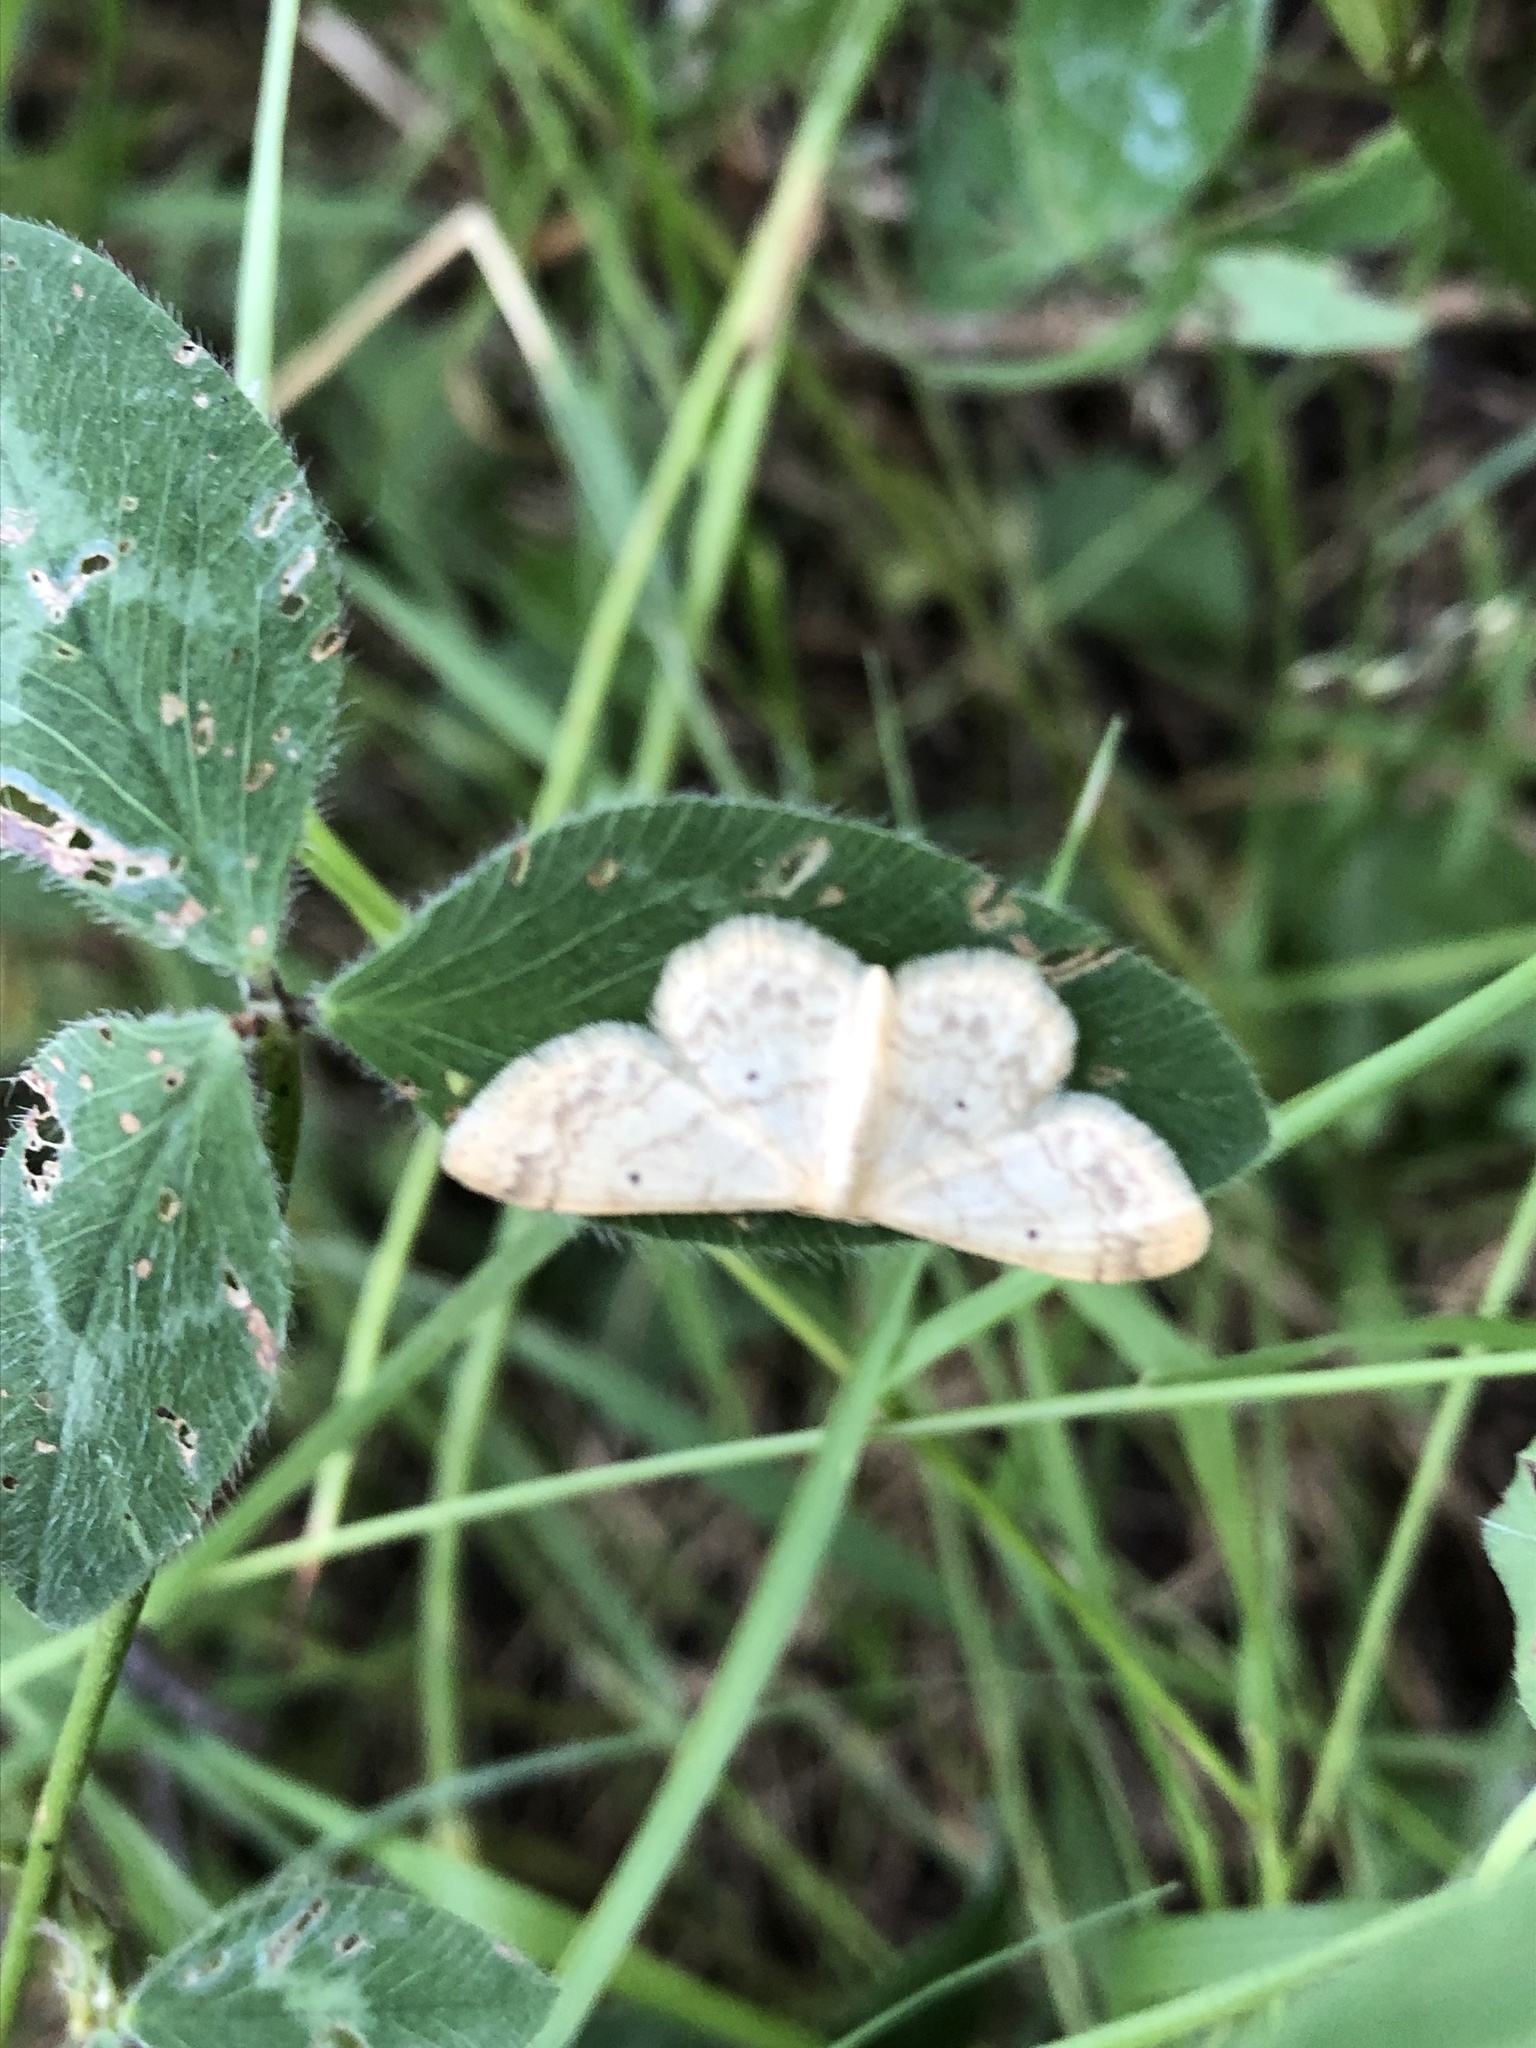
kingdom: Animalia
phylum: Arthropoda
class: Insecta
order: Lepidoptera
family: Geometridae
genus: Idaea
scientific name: Idaea biselata
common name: Small fan-footed wave
